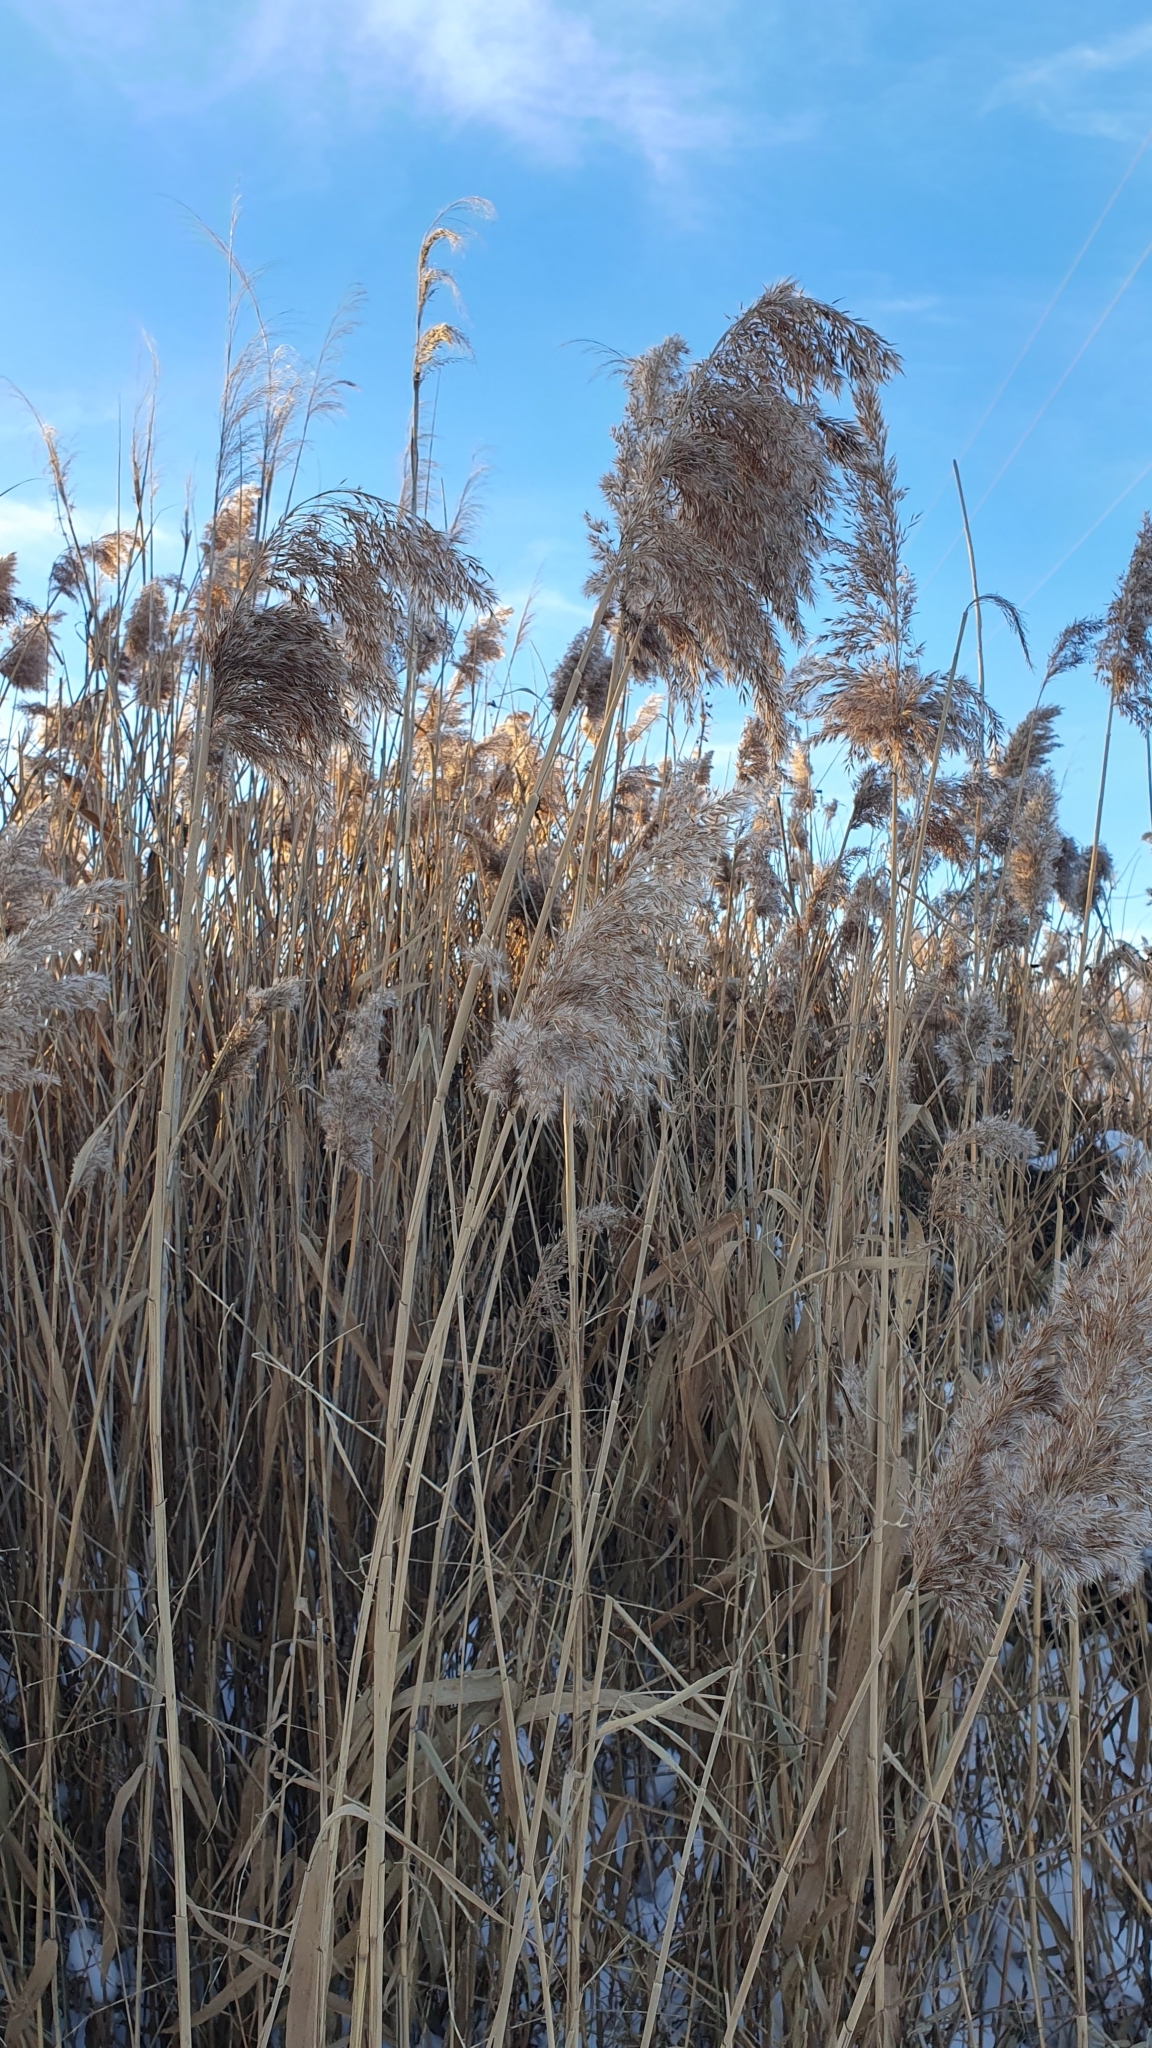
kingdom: Plantae
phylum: Tracheophyta
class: Liliopsida
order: Poales
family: Poaceae
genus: Phragmites
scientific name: Phragmites australis
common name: Common reed
